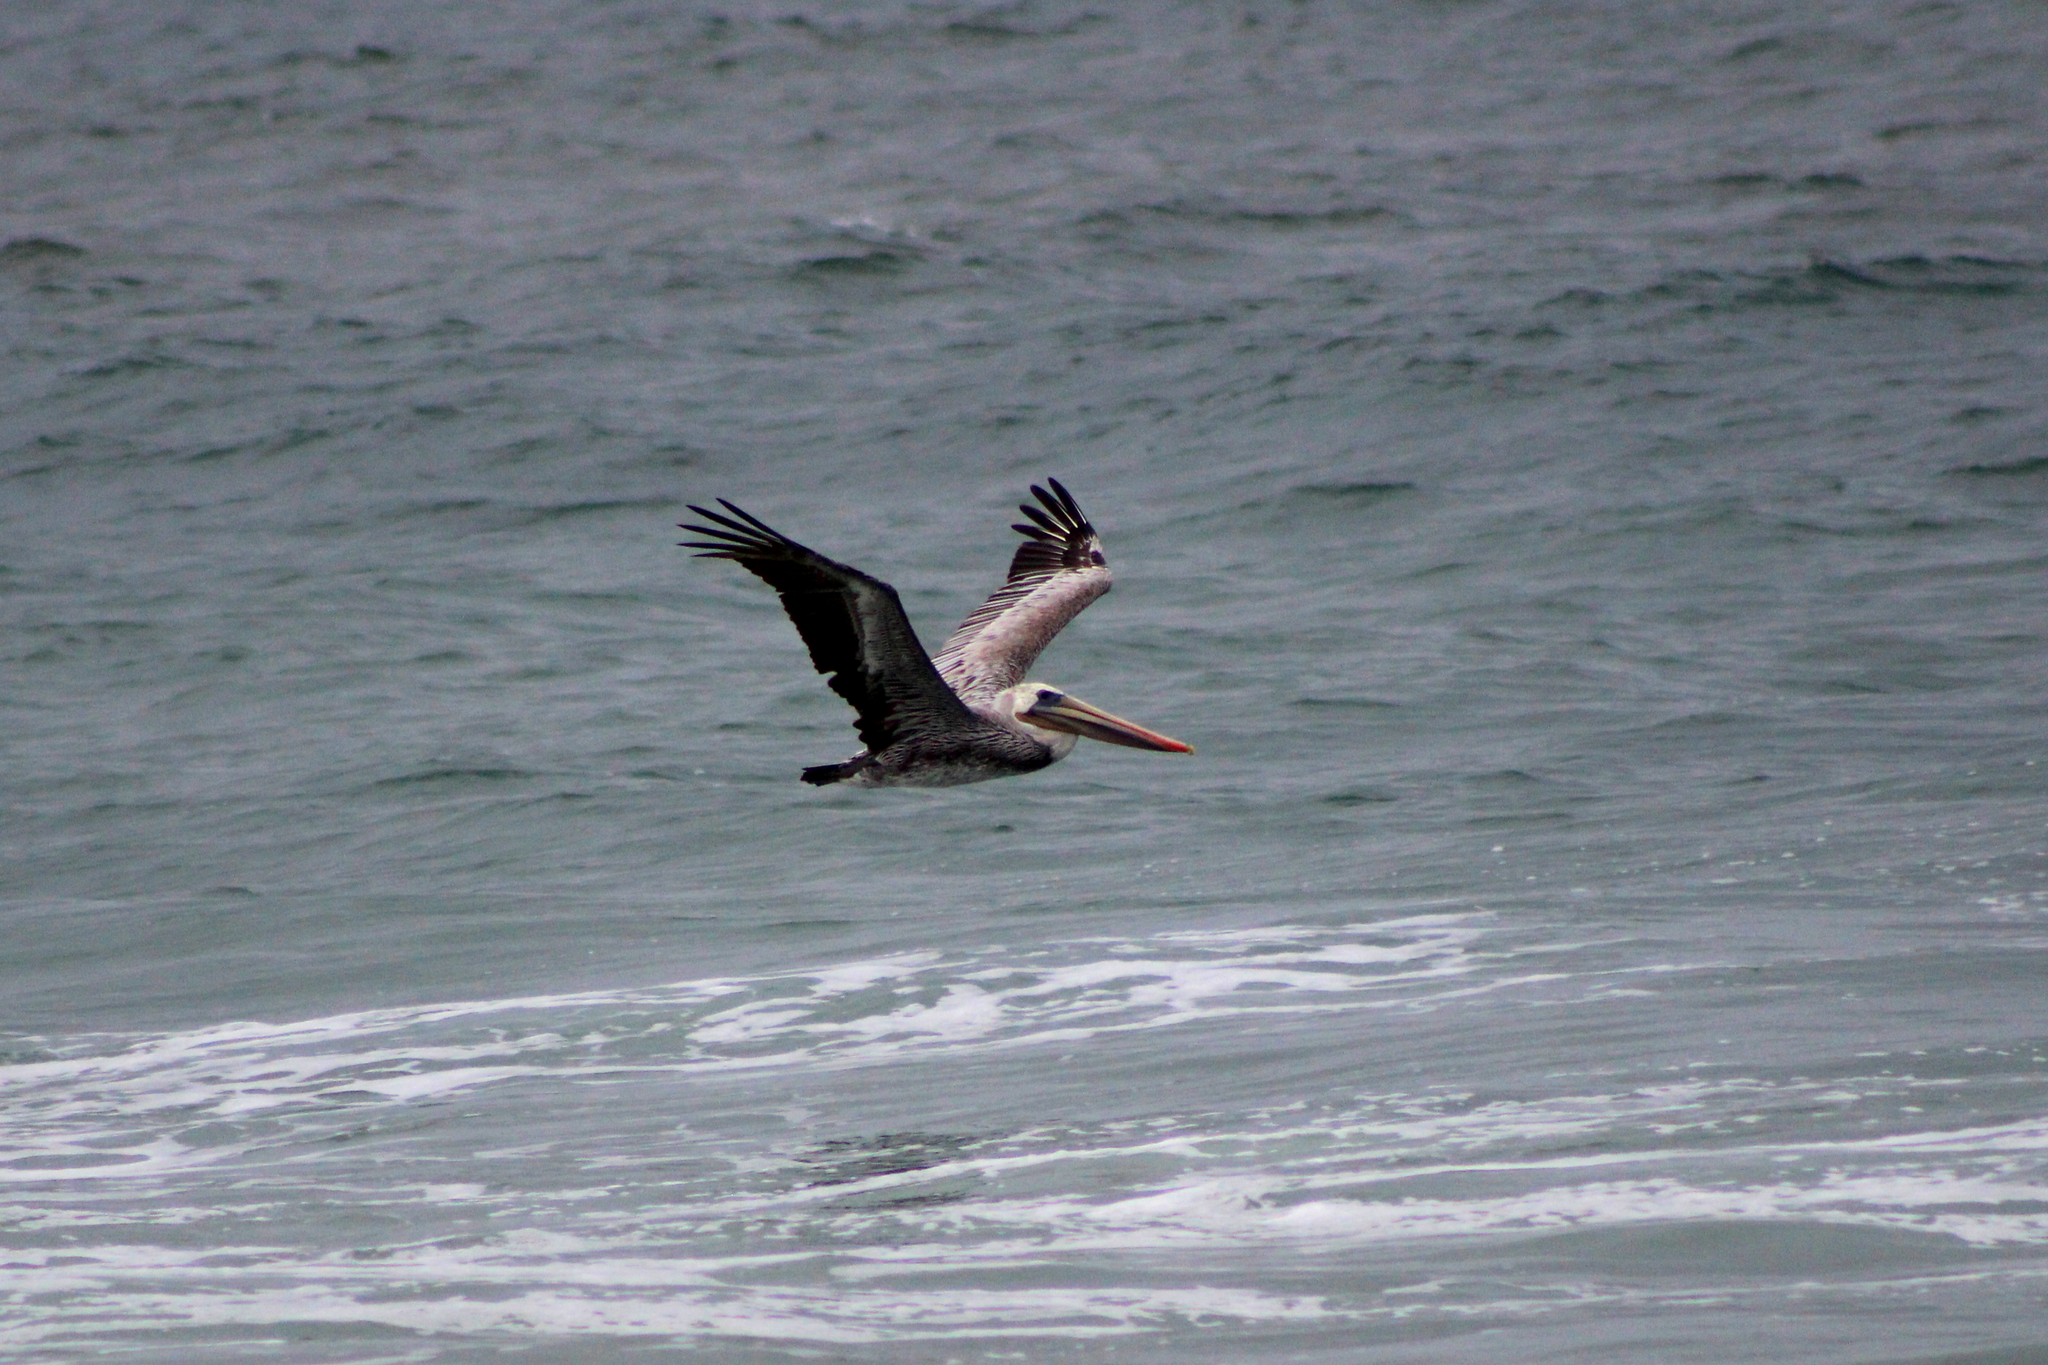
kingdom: Animalia
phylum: Chordata
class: Aves
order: Pelecaniformes
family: Pelecanidae
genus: Pelecanus
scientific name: Pelecanus occidentalis
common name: Brown pelican
